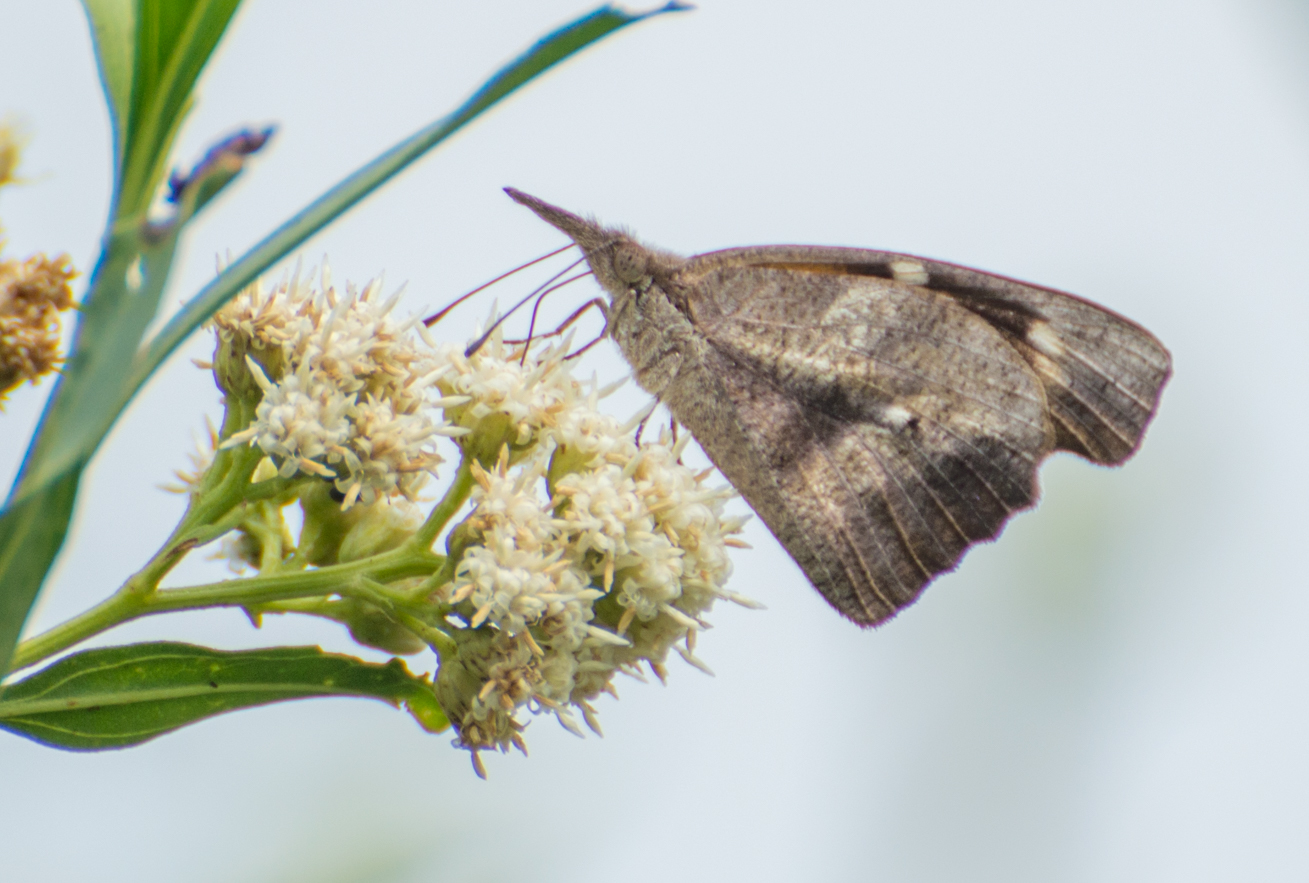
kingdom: Animalia
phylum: Arthropoda
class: Insecta
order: Lepidoptera
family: Nymphalidae
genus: Libytheana
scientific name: Libytheana carinenta
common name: American snout
